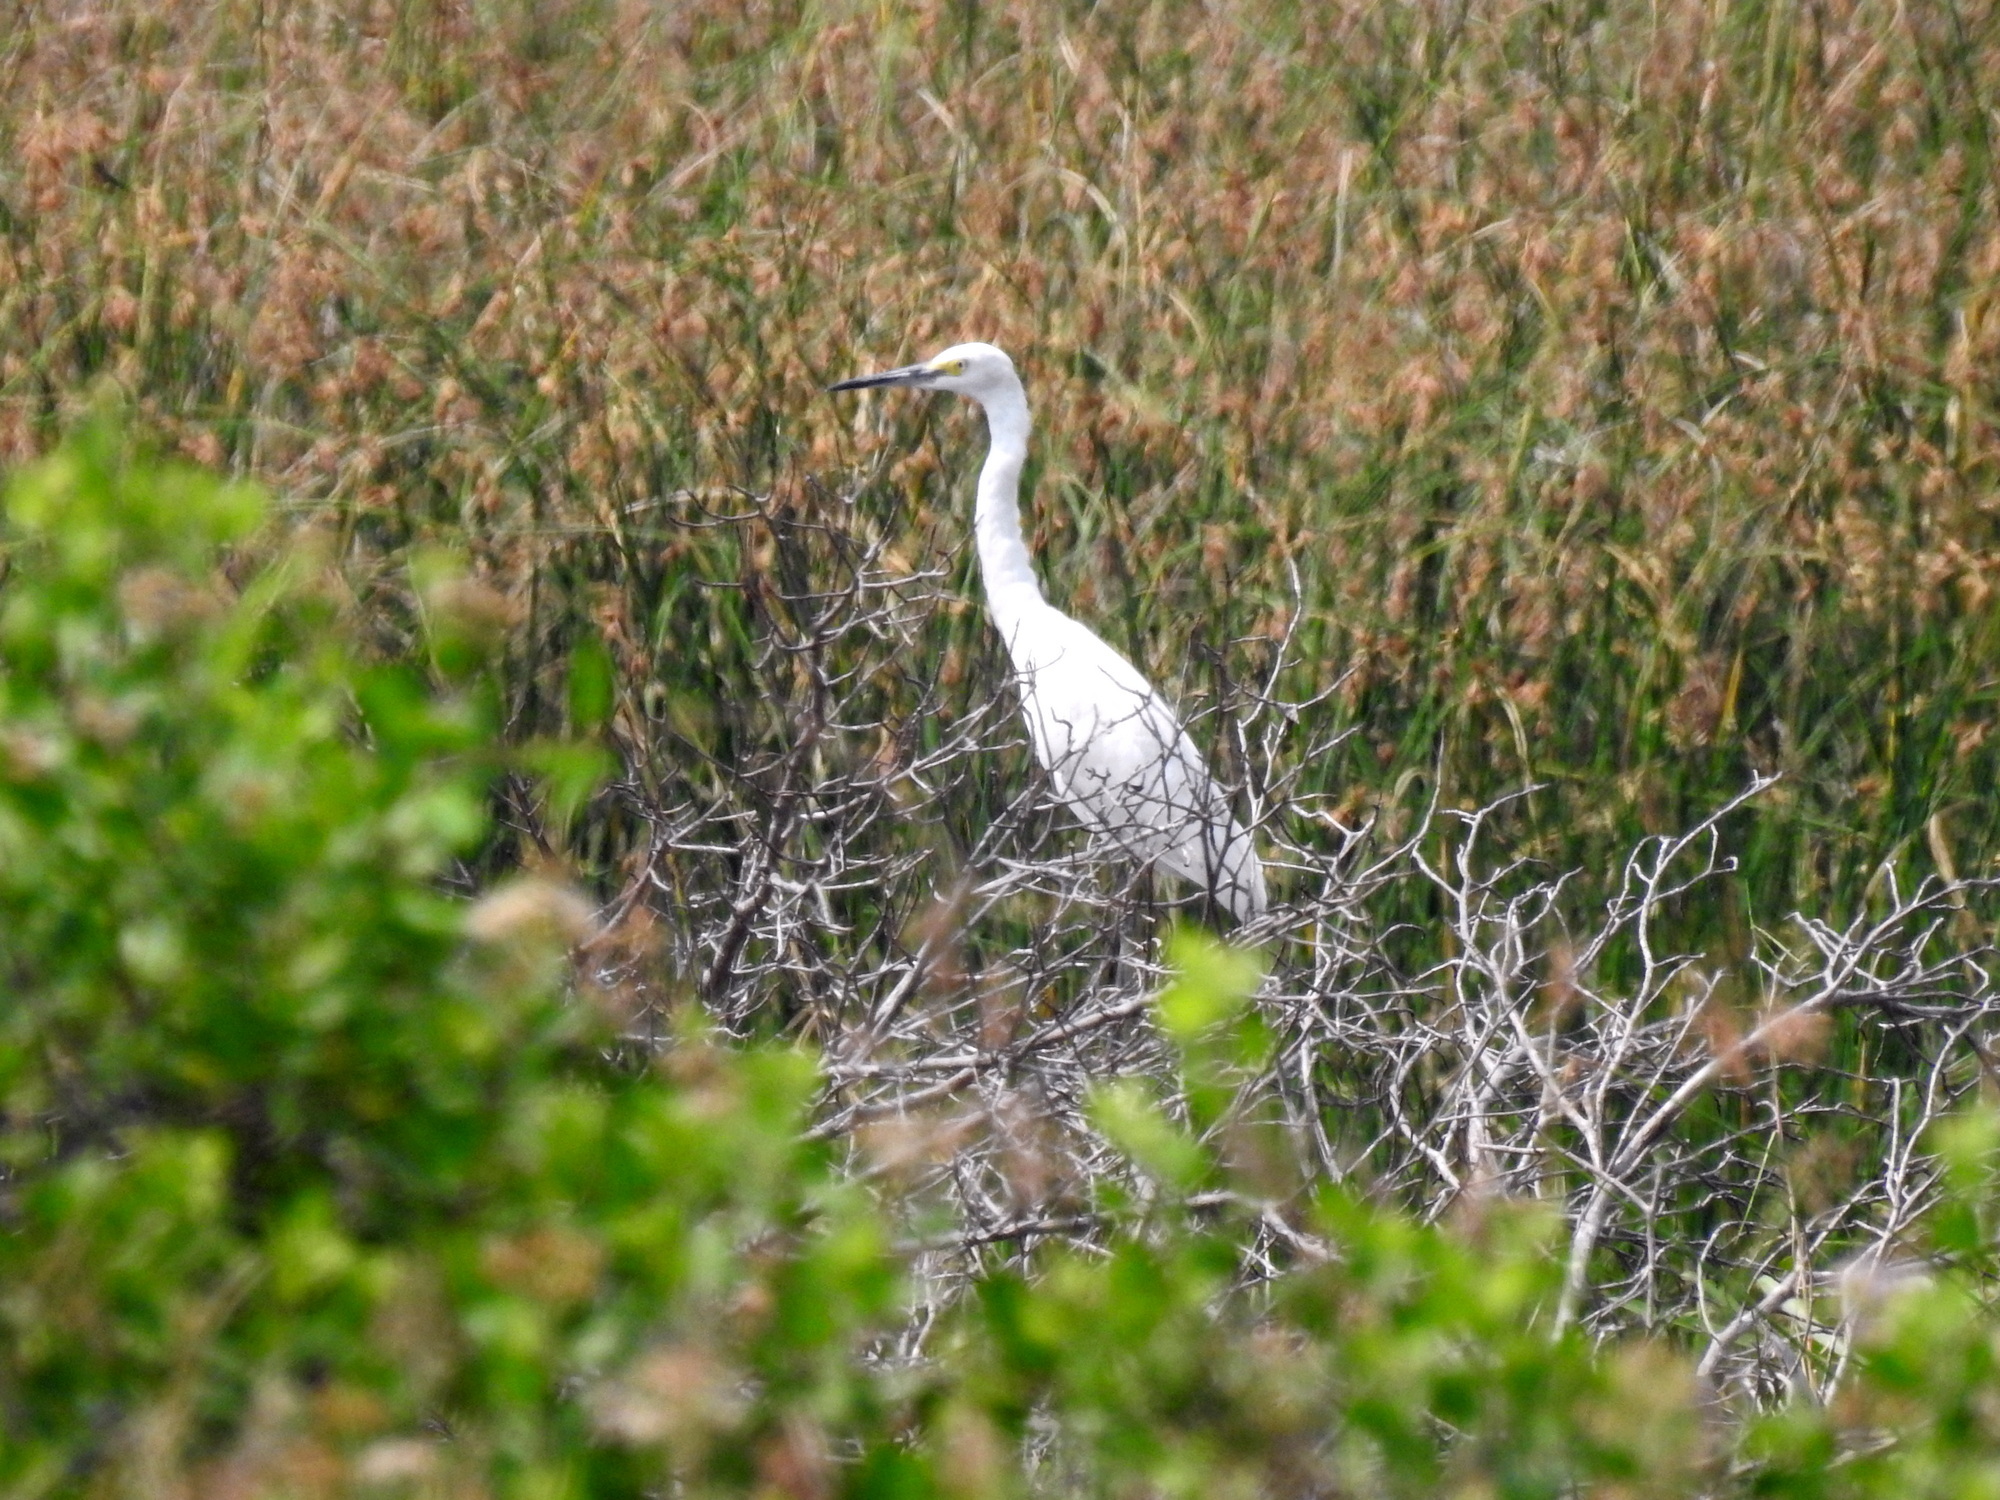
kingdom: Animalia
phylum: Chordata
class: Aves
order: Pelecaniformes
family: Ardeidae
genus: Egretta
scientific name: Egretta garzetta
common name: Little egret
